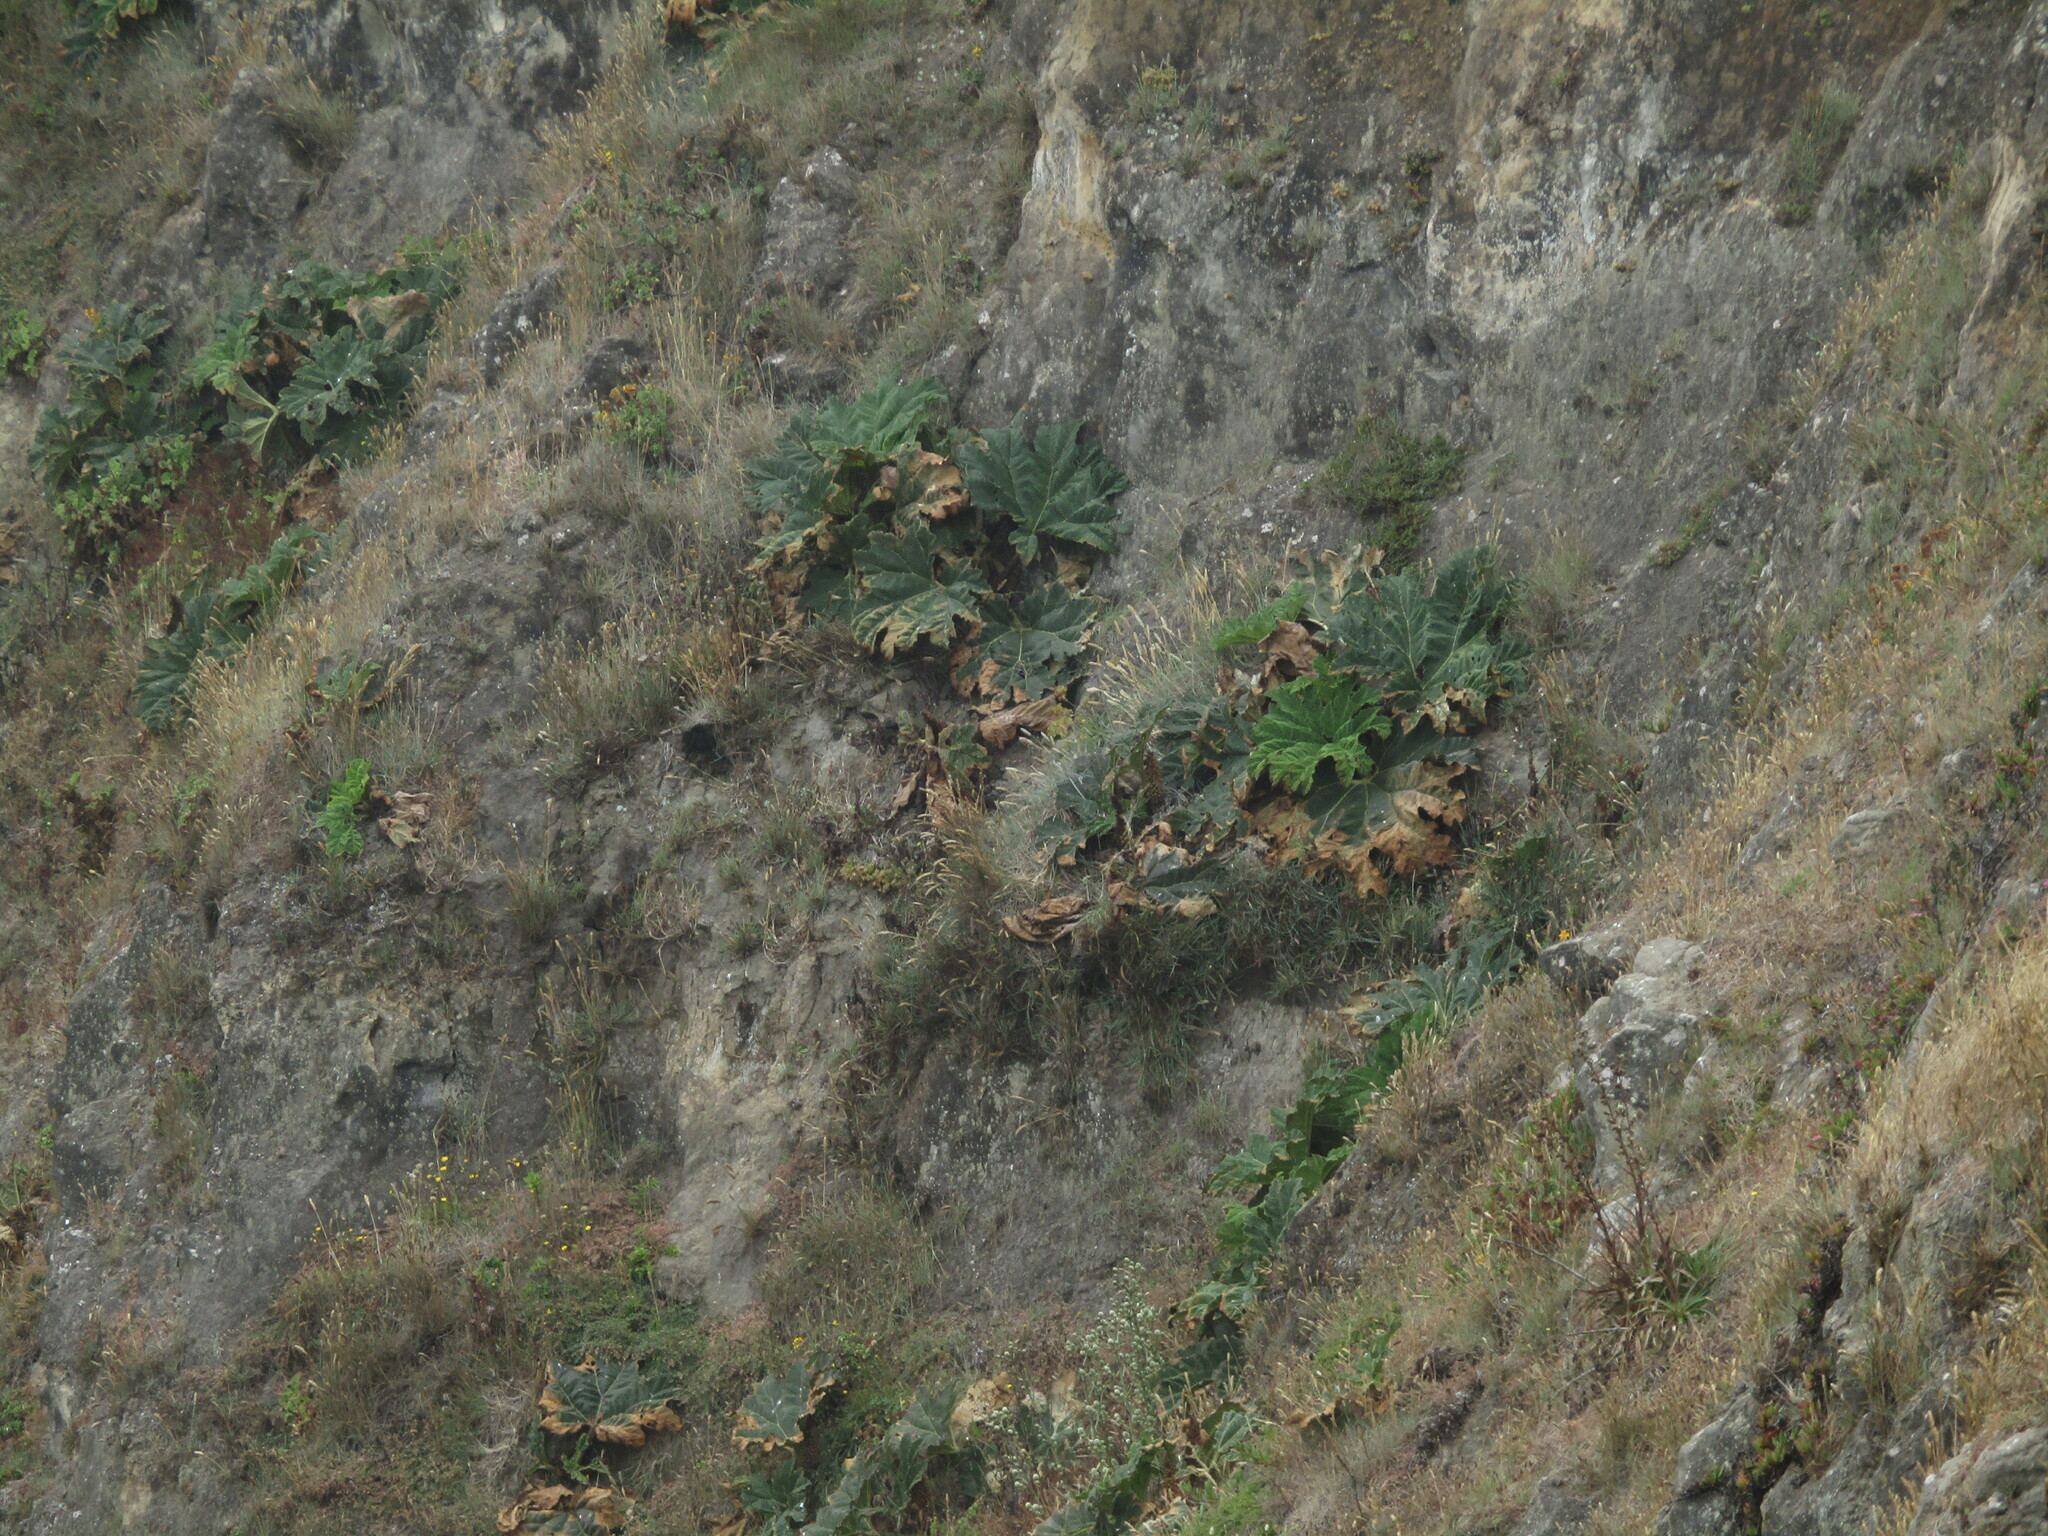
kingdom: Plantae
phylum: Tracheophyta
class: Magnoliopsida
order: Gunnerales
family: Gunneraceae
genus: Gunnera
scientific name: Gunnera tinctoria
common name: Giant-rhubarb
